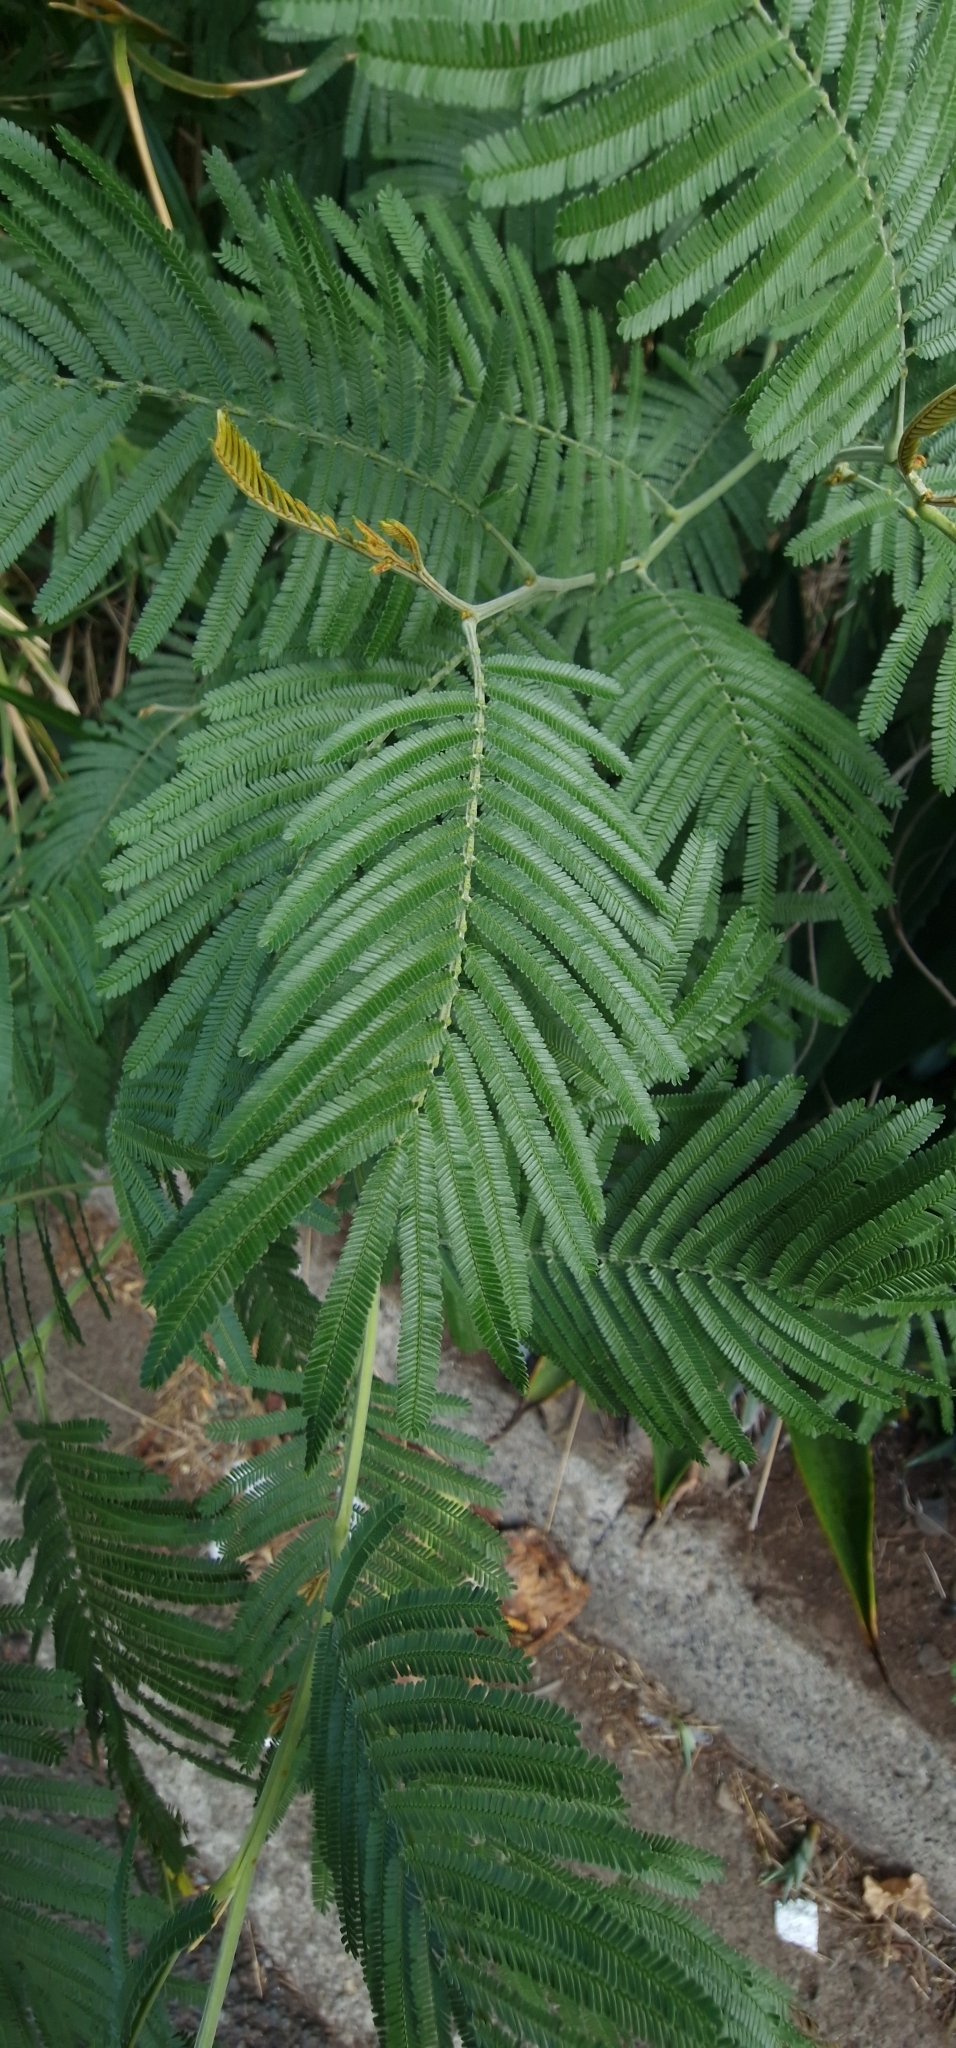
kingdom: Plantae
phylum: Tracheophyta
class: Magnoliopsida
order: Fabales
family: Fabaceae
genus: Acacia
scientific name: Acacia mearnsii
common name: Black wattle
